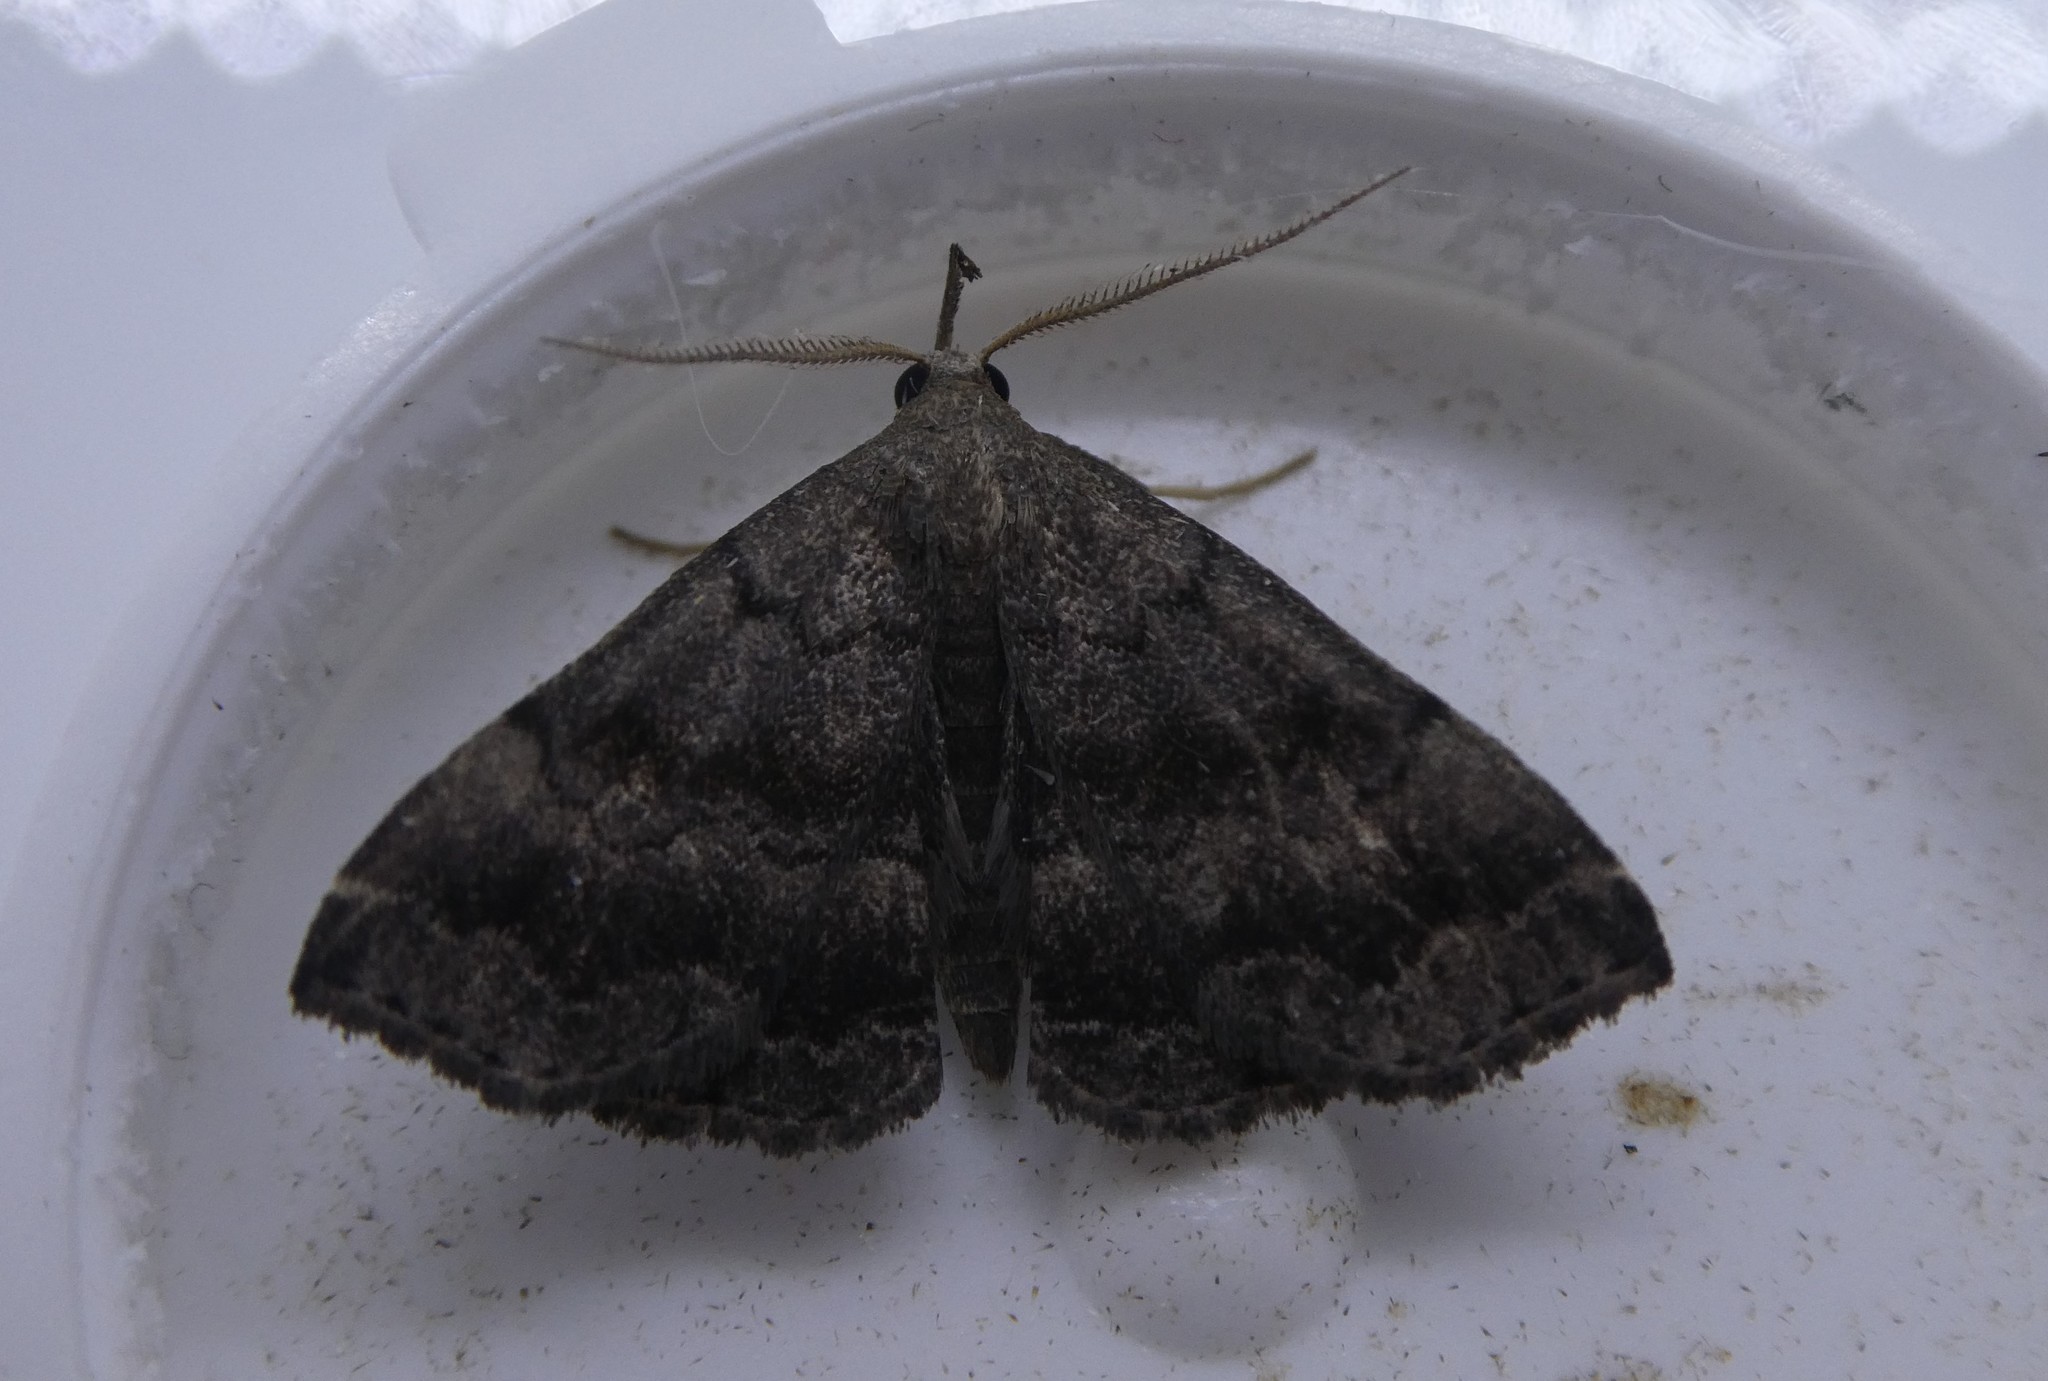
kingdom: Animalia
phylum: Arthropoda
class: Insecta
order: Lepidoptera
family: Erebidae
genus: Phalaenostola
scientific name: Phalaenostola larentioides
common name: Black-banded owlet
